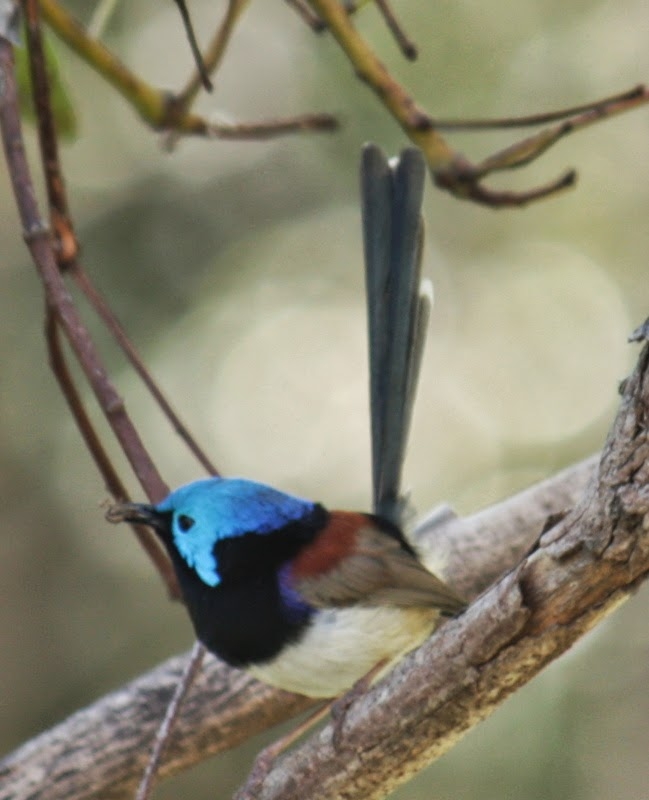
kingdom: Animalia
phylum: Chordata
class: Aves
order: Passeriformes
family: Maluridae
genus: Malurus
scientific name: Malurus lamberti
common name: Variegated fairywren
